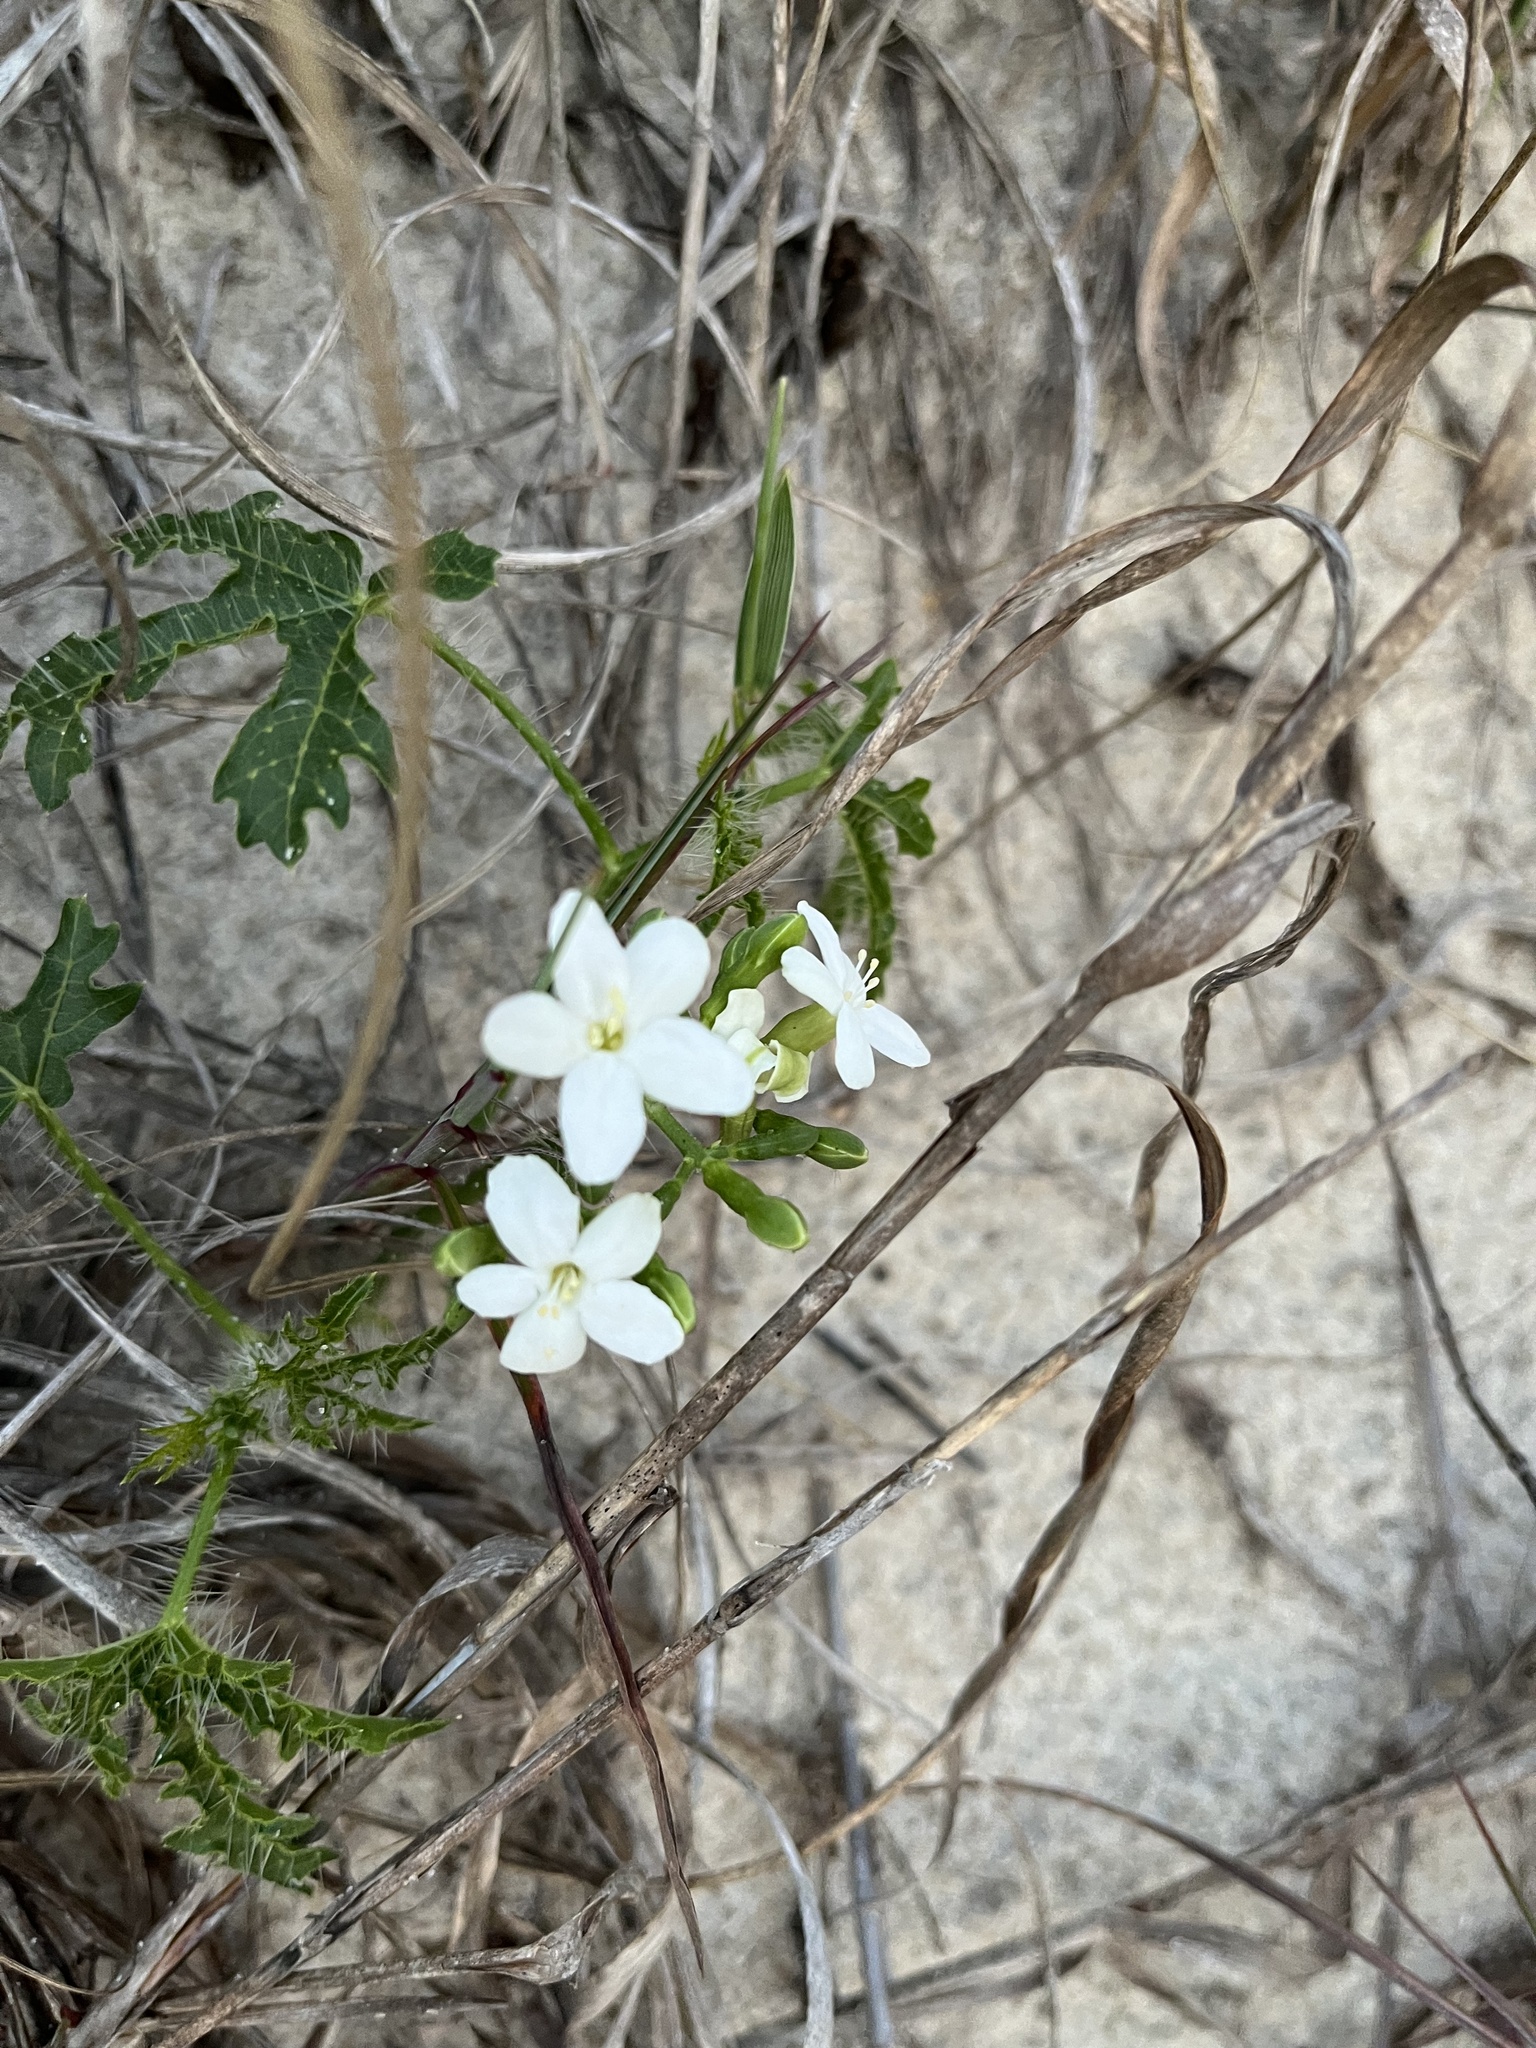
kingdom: Plantae
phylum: Tracheophyta
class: Magnoliopsida
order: Malpighiales
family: Euphorbiaceae
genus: Cnidoscolus
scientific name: Cnidoscolus stimulosus
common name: Bull-nettle
